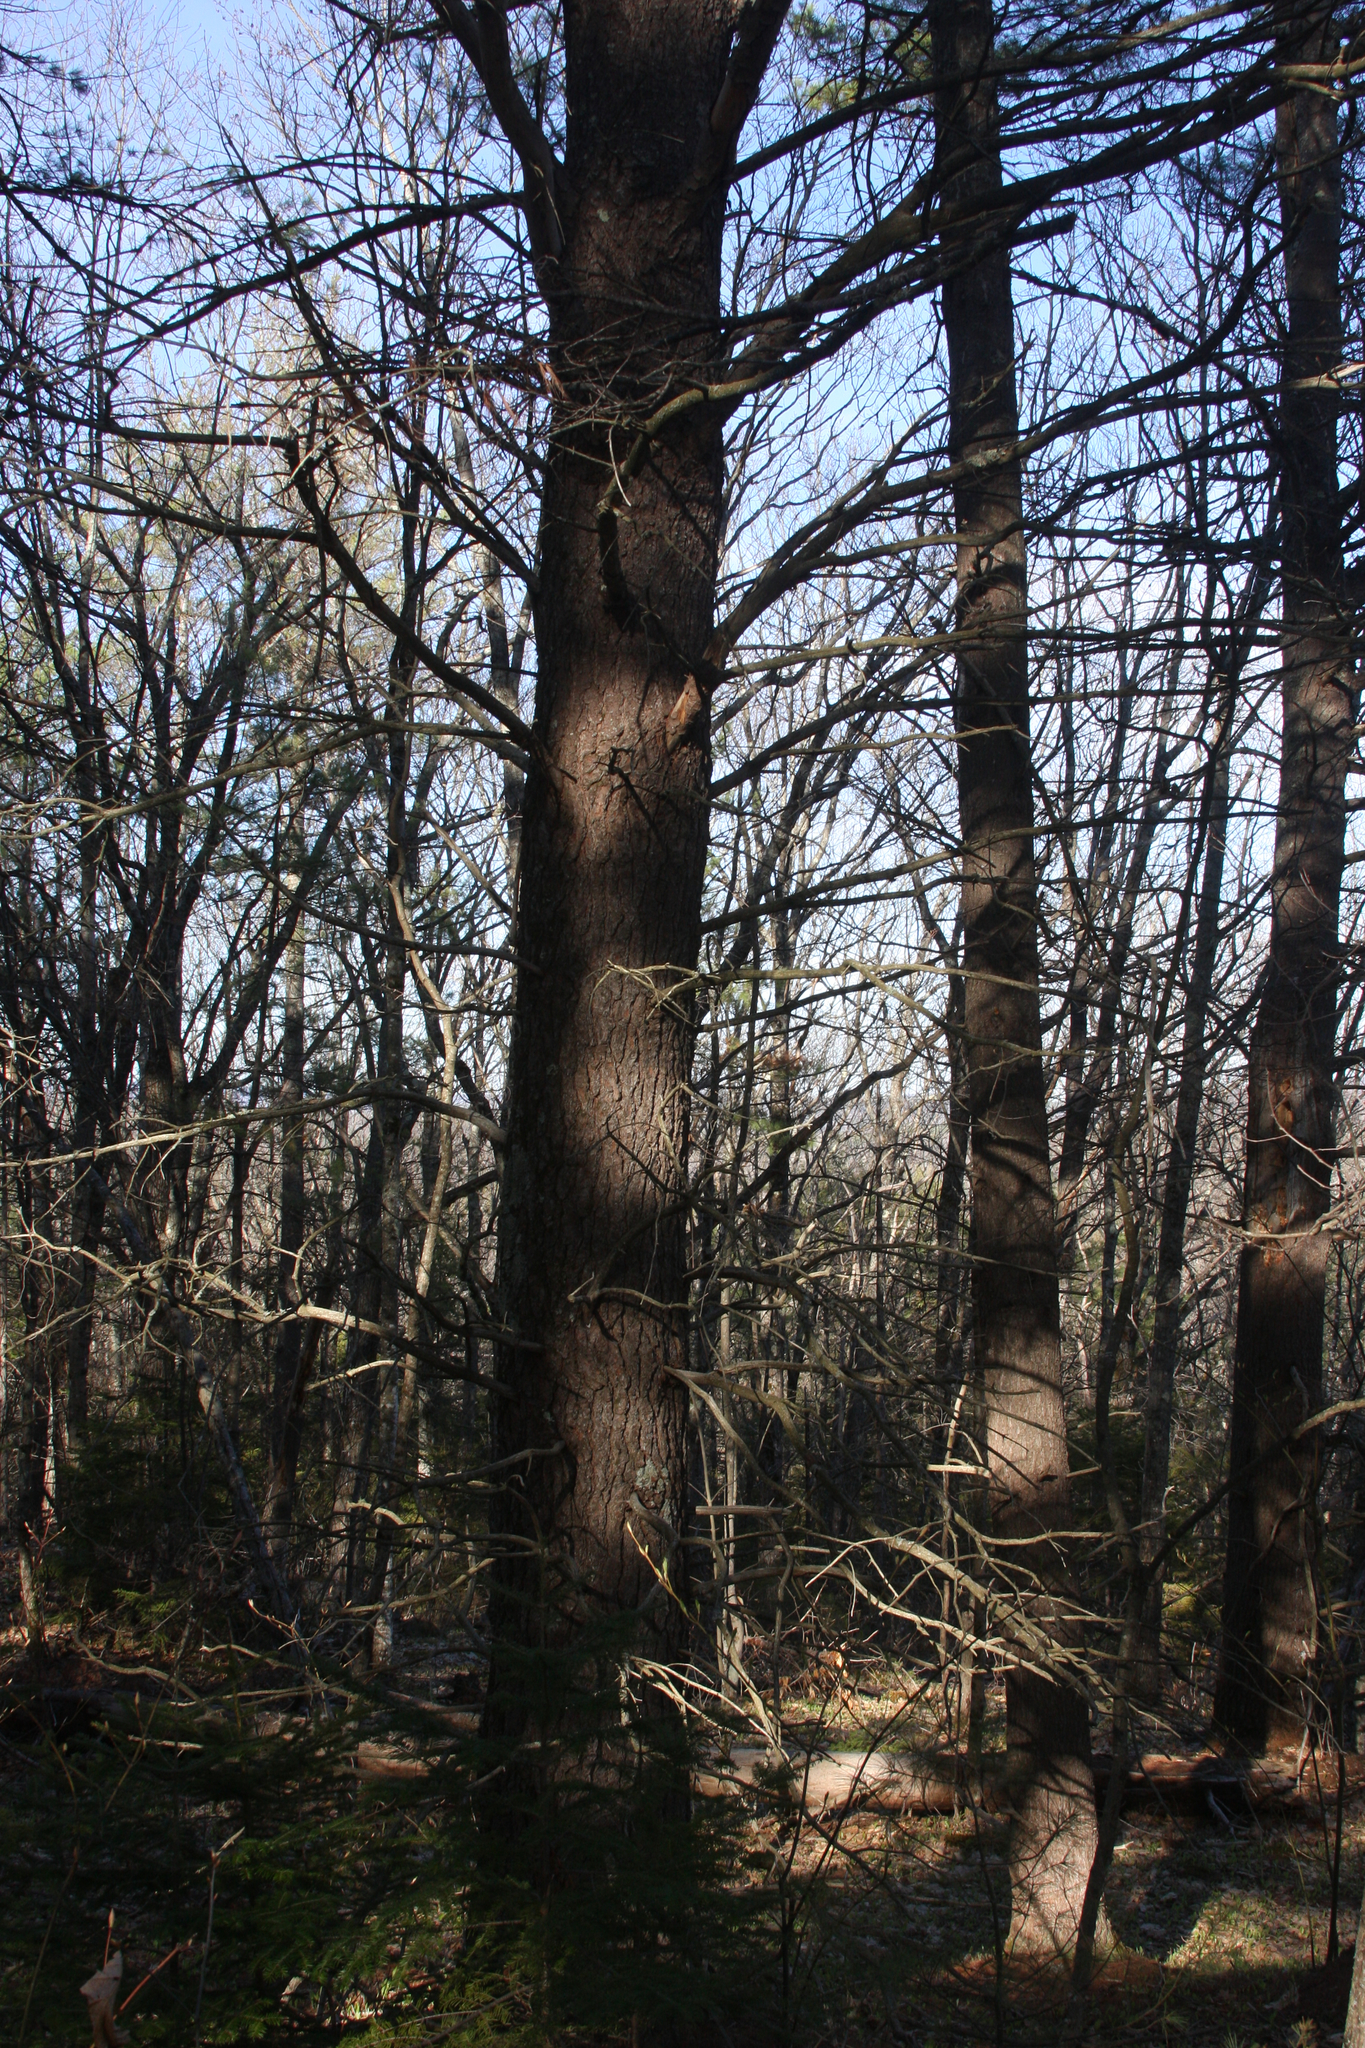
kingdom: Plantae
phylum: Tracheophyta
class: Pinopsida
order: Pinales
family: Pinaceae
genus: Pinus
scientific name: Pinus strobus
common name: Weymouth pine
